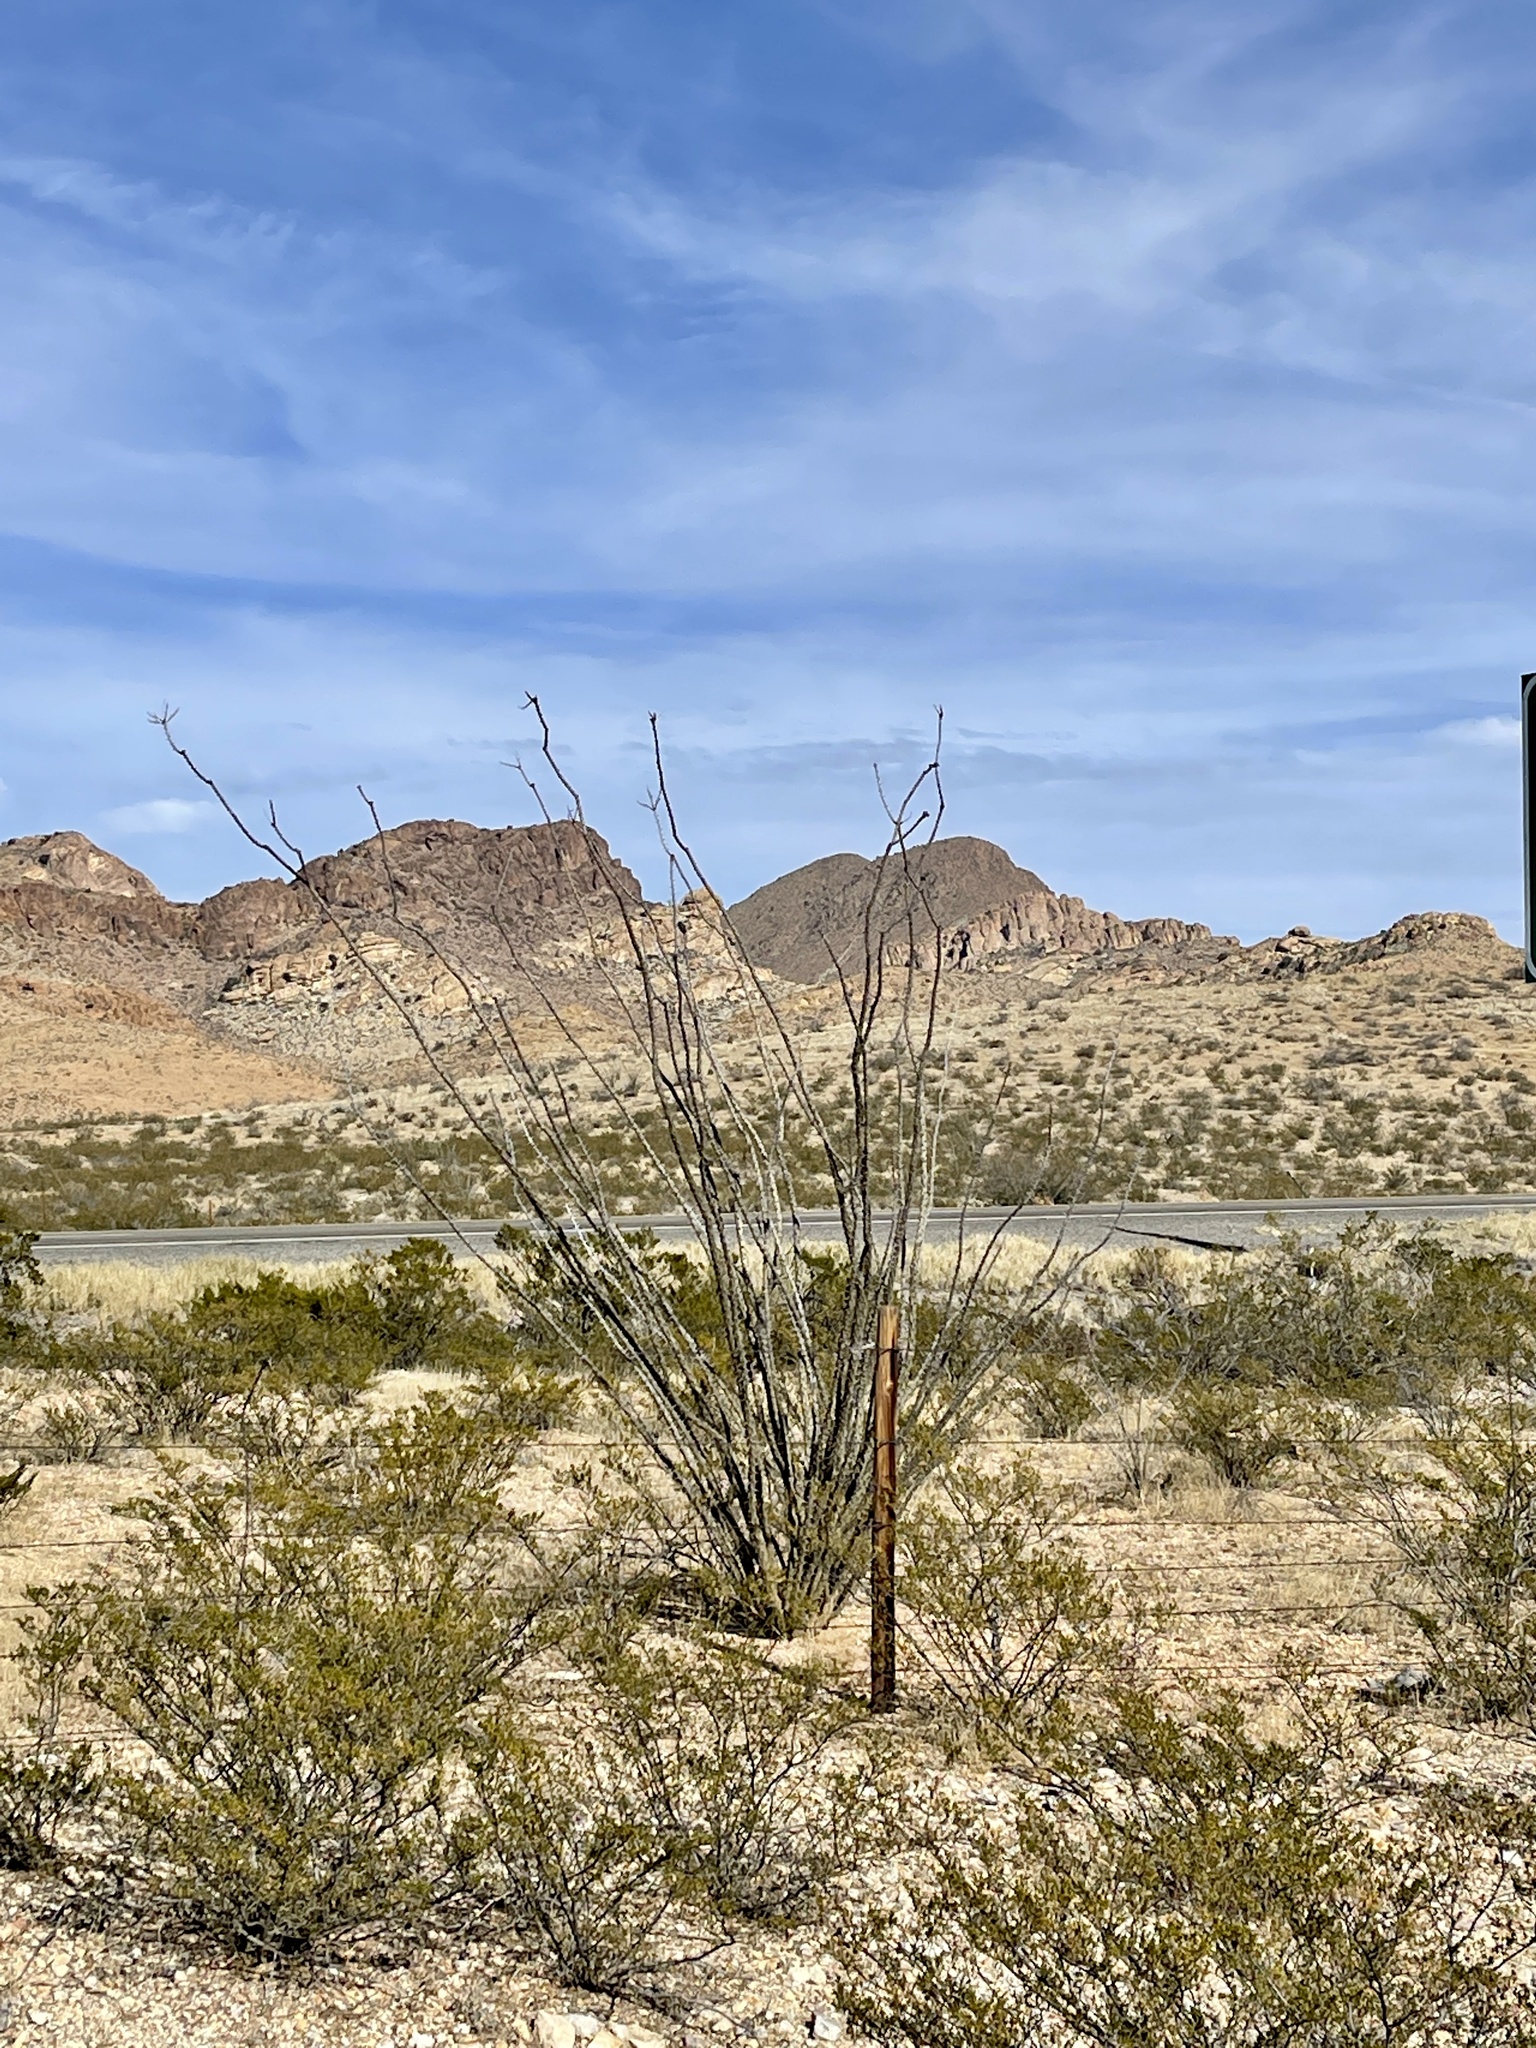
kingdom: Plantae
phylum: Tracheophyta
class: Magnoliopsida
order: Ericales
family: Fouquieriaceae
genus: Fouquieria
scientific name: Fouquieria splendens
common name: Vine-cactus
